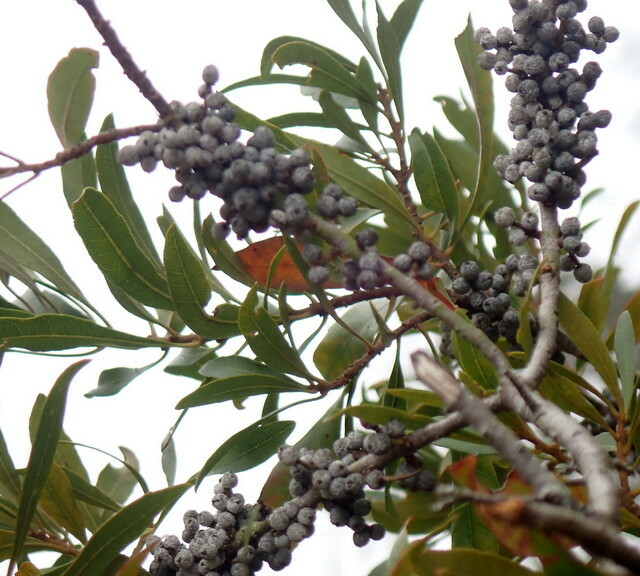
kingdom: Plantae
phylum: Tracheophyta
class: Magnoliopsida
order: Fagales
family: Myricaceae
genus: Morella
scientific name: Morella cerifera
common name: Wax myrtle
